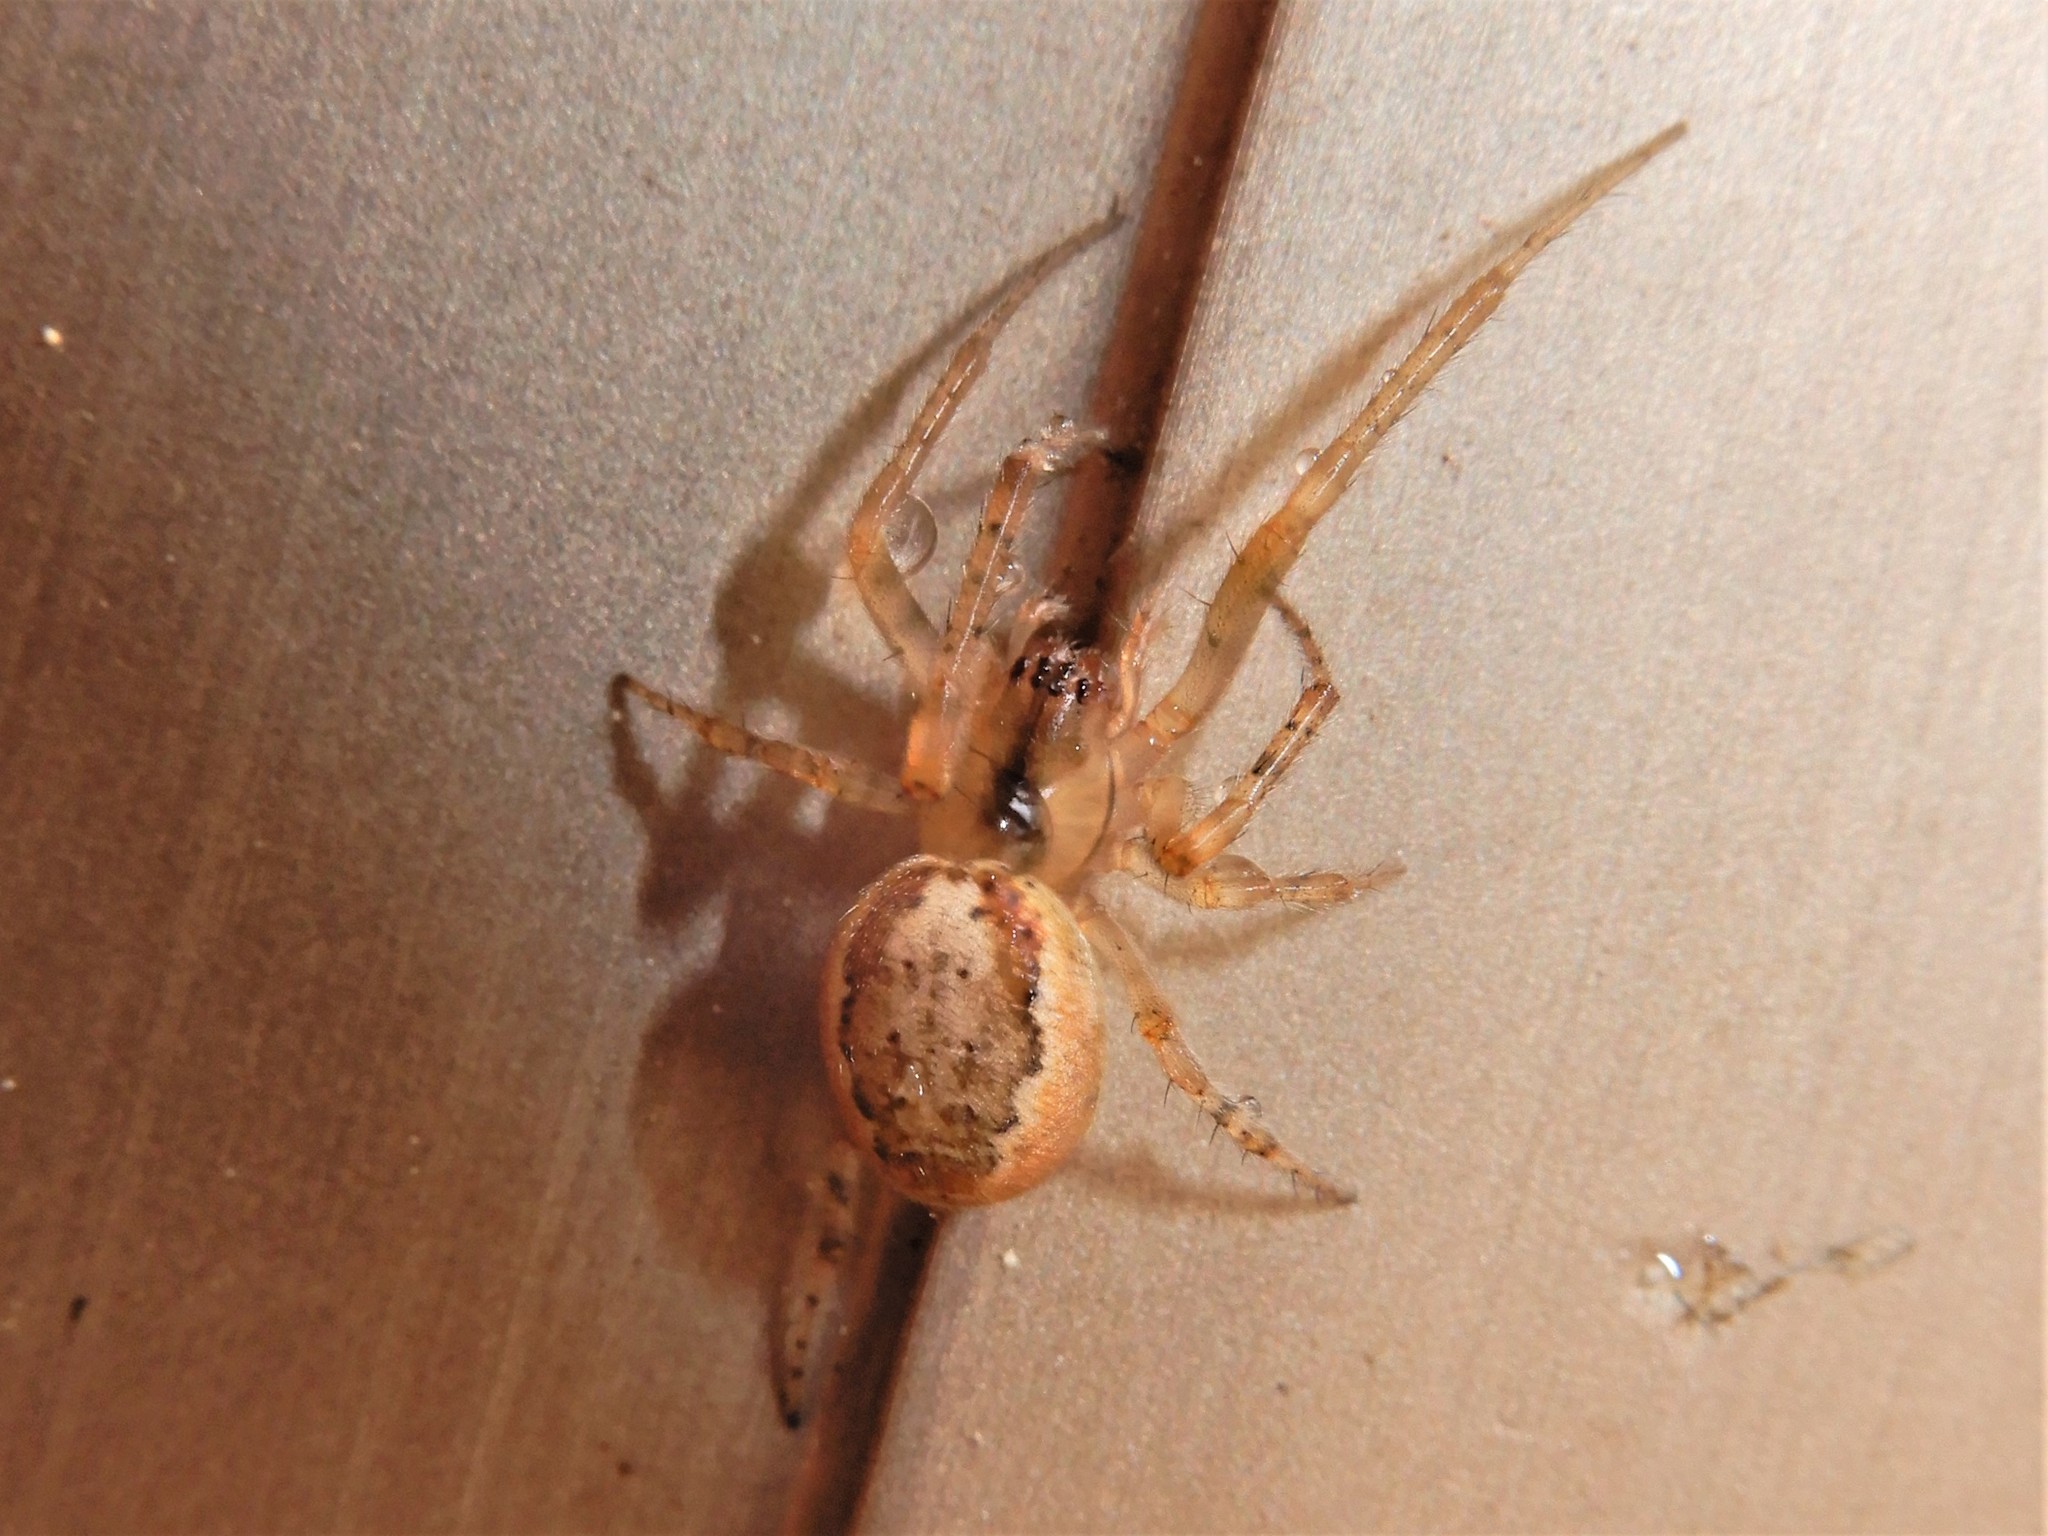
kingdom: Animalia
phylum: Arthropoda
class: Arachnida
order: Araneae
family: Araneidae
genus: Zygiella
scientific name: Zygiella x-notata
